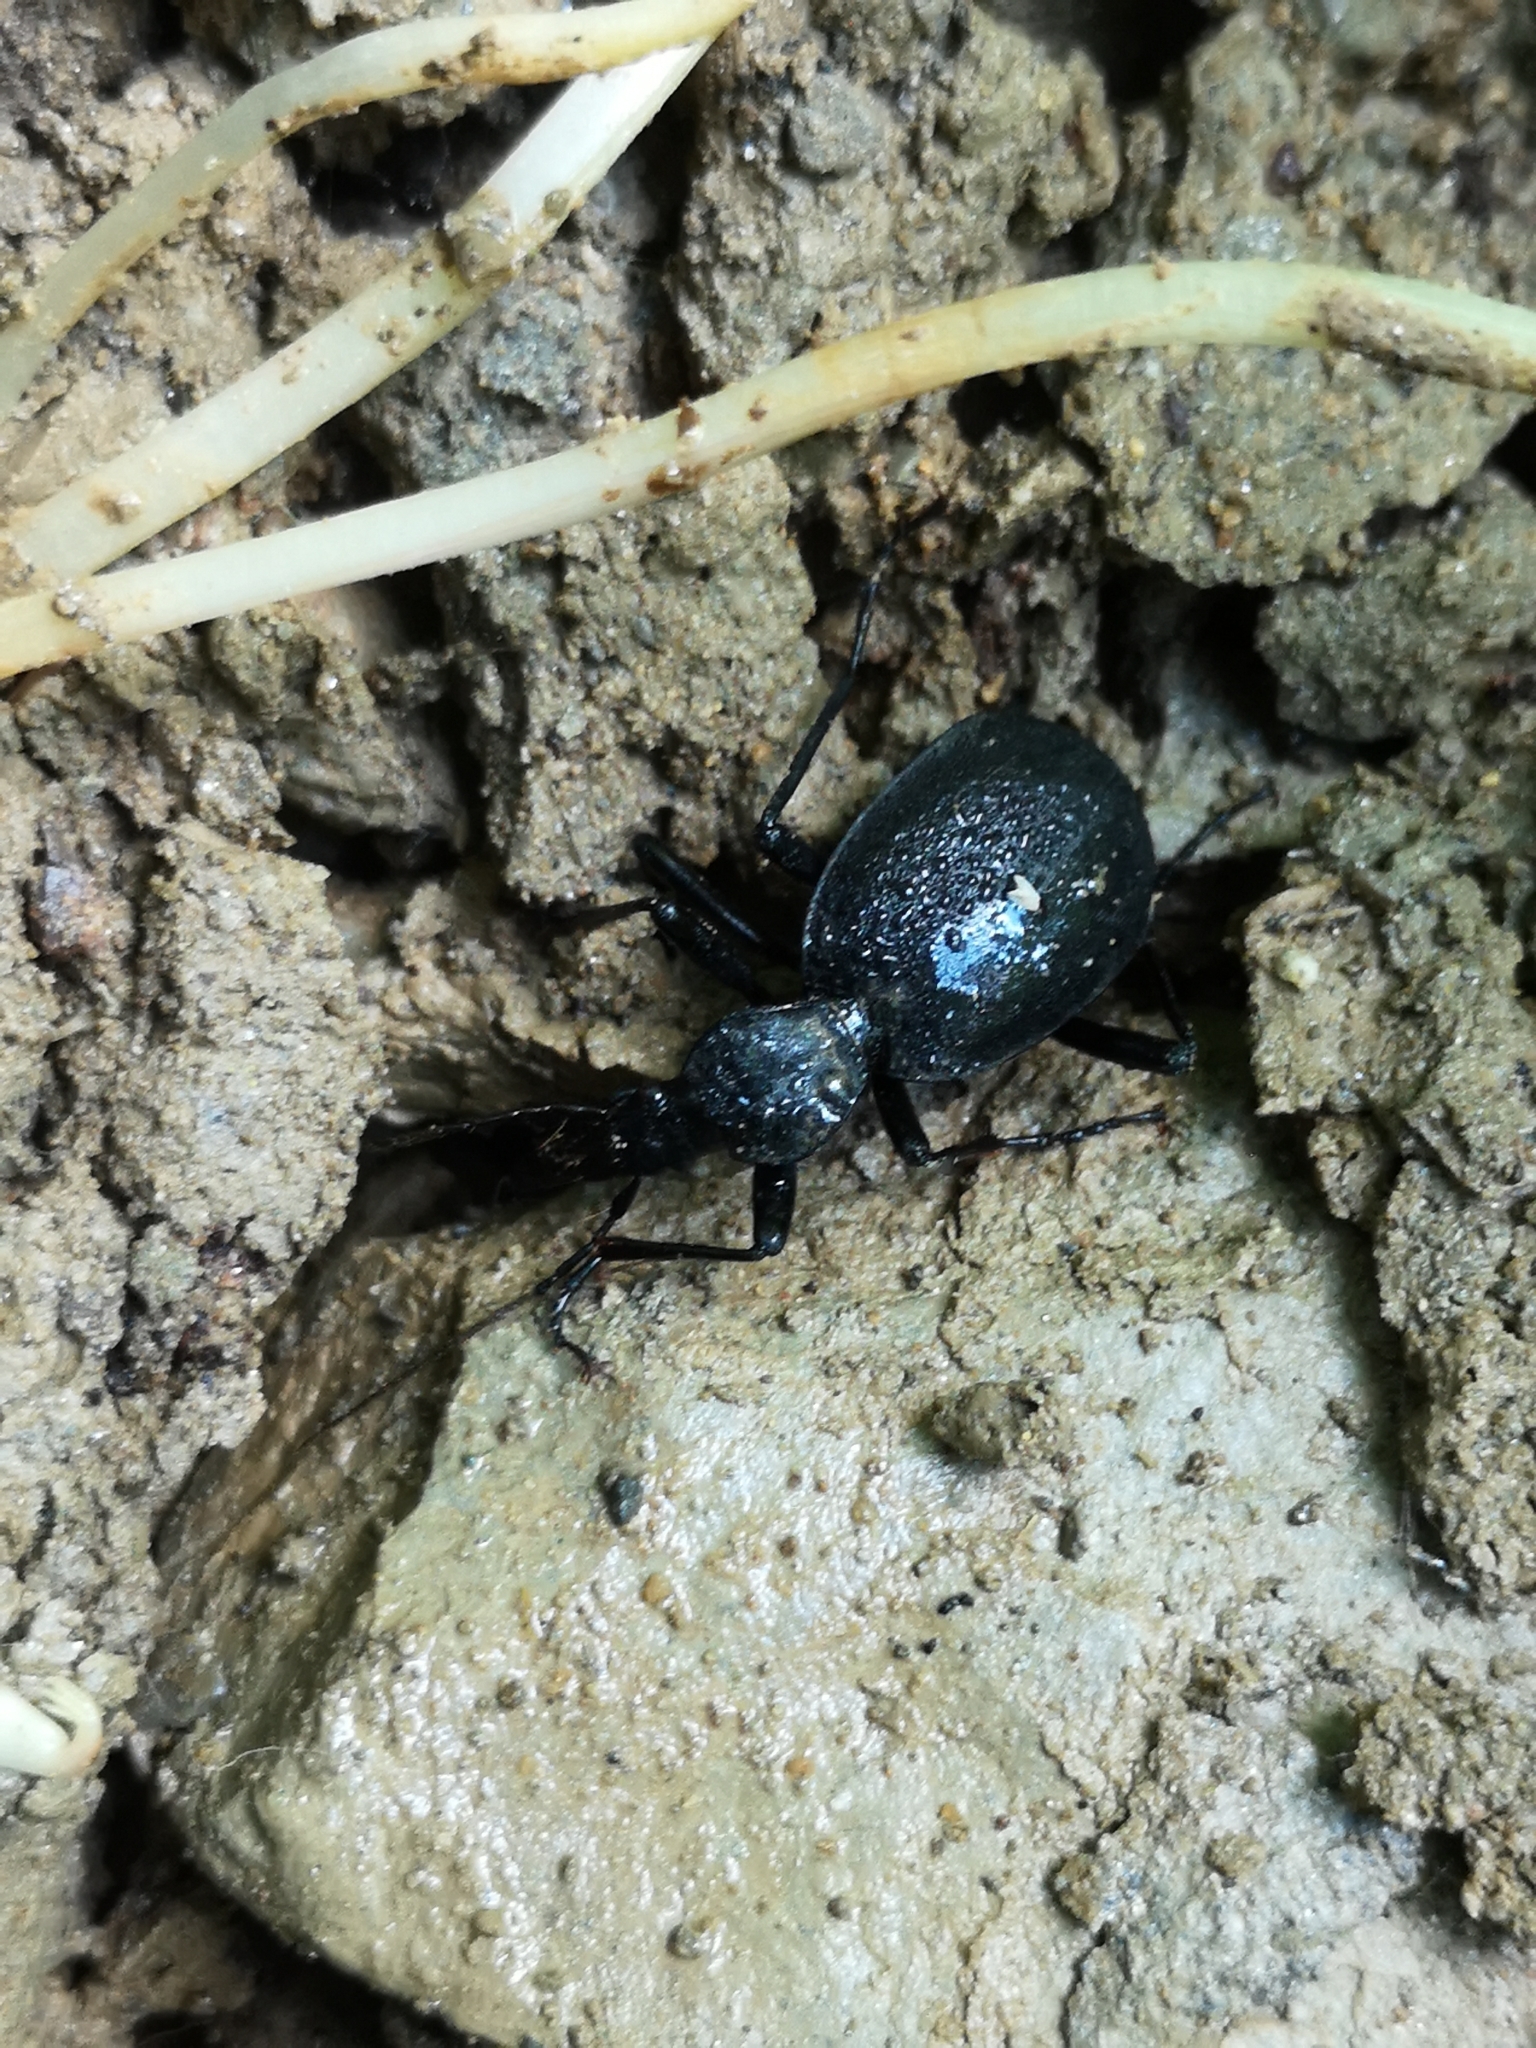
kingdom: Animalia
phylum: Arthropoda
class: Insecta
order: Coleoptera
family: Carabidae
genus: Cychrus
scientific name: Cychrus italicus
